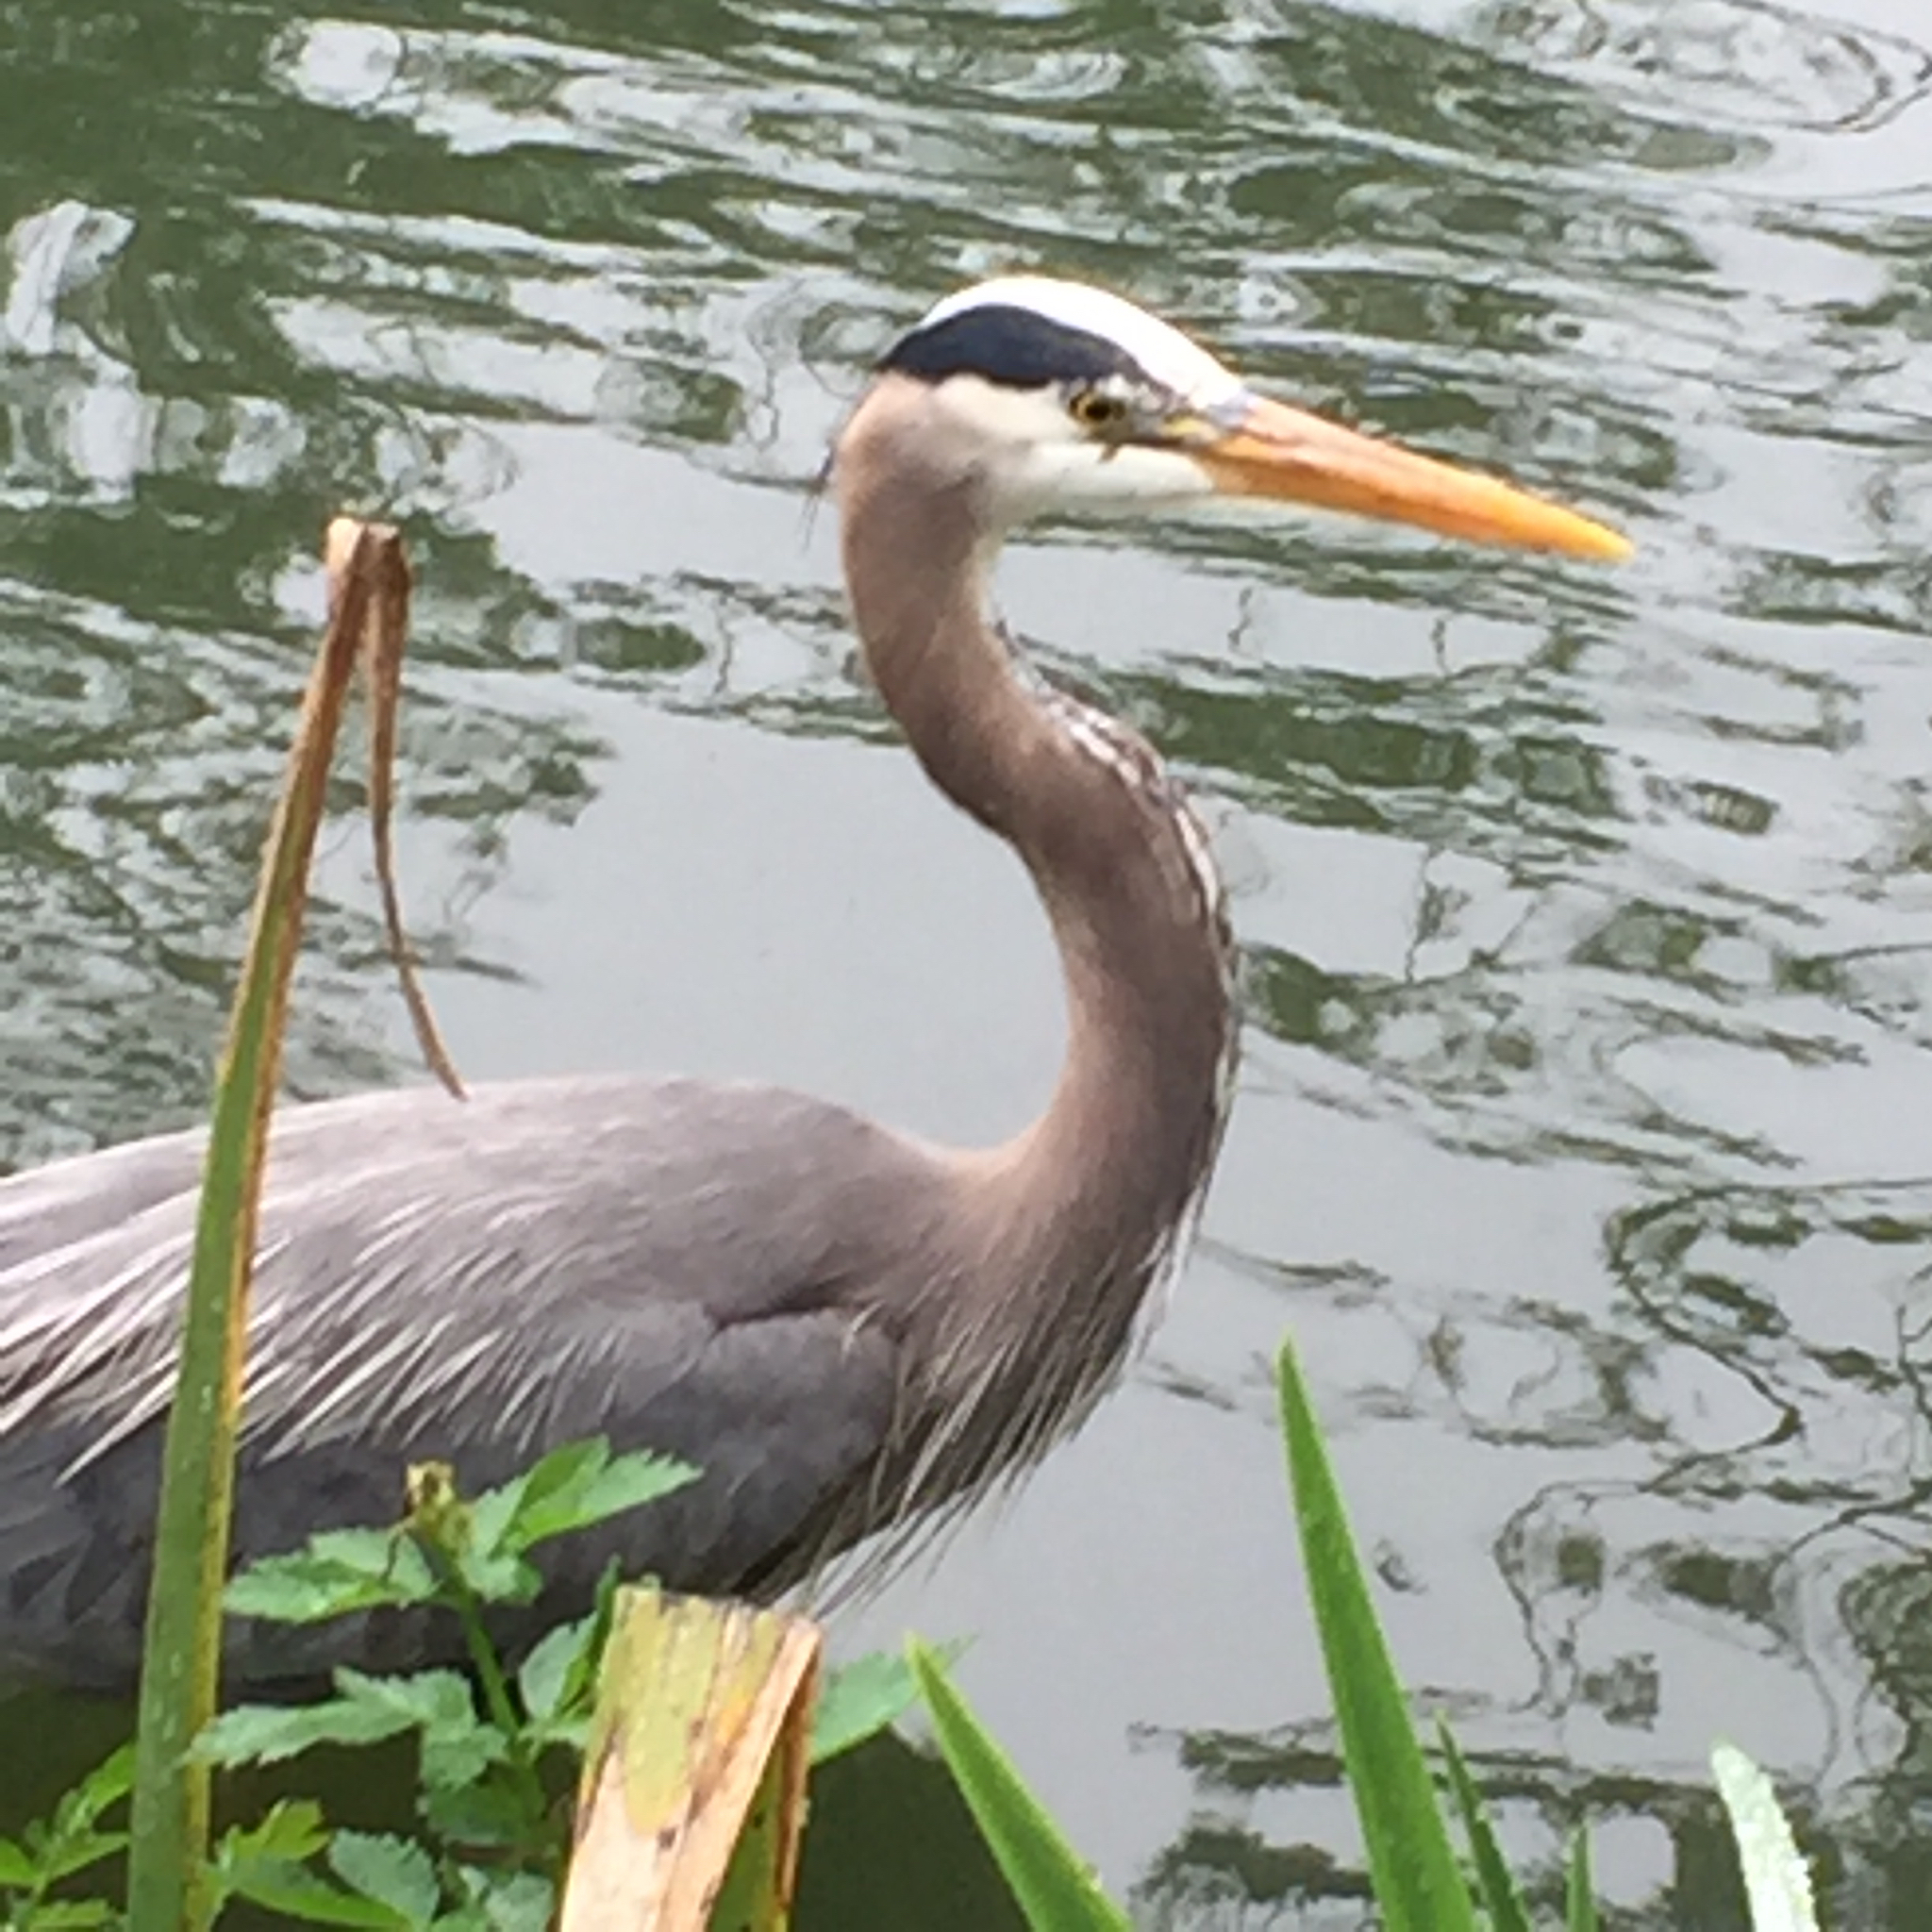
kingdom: Animalia
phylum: Chordata
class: Aves
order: Pelecaniformes
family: Ardeidae
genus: Ardea
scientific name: Ardea herodias
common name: Great blue heron
